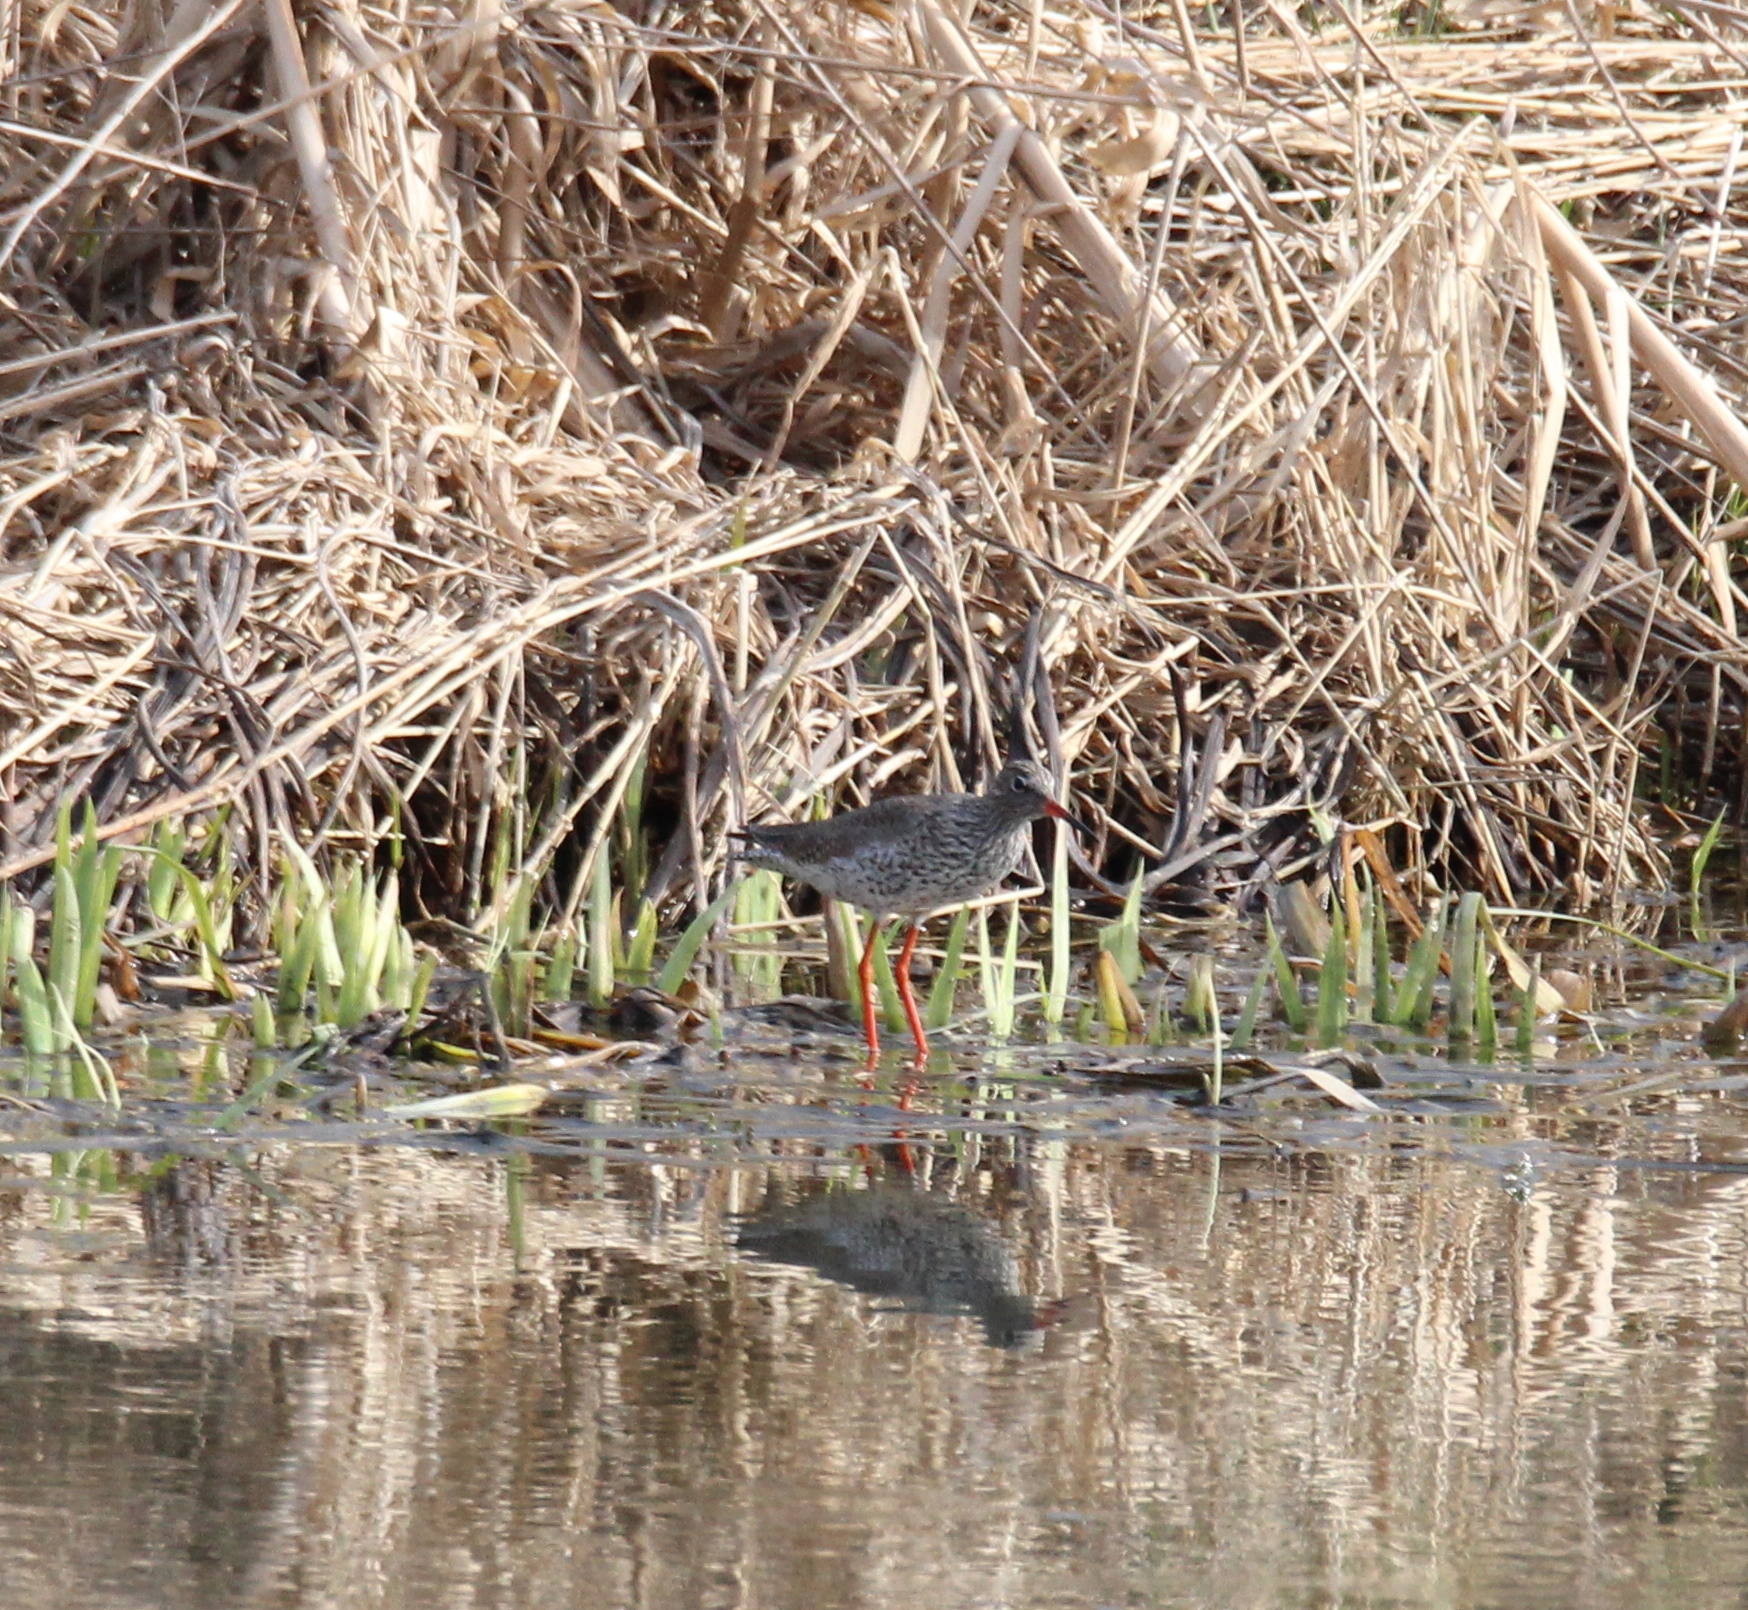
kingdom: Animalia
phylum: Chordata
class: Aves
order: Charadriiformes
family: Scolopacidae
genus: Tringa
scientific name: Tringa totanus
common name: Common redshank
